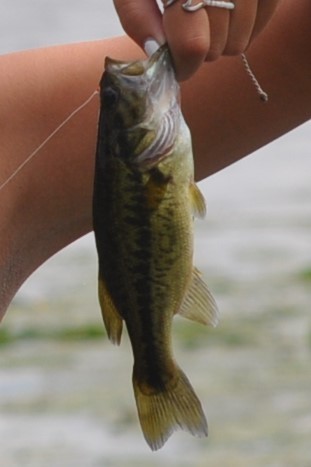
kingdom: Animalia
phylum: Chordata
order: Perciformes
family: Centrarchidae
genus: Micropterus
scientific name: Micropterus
